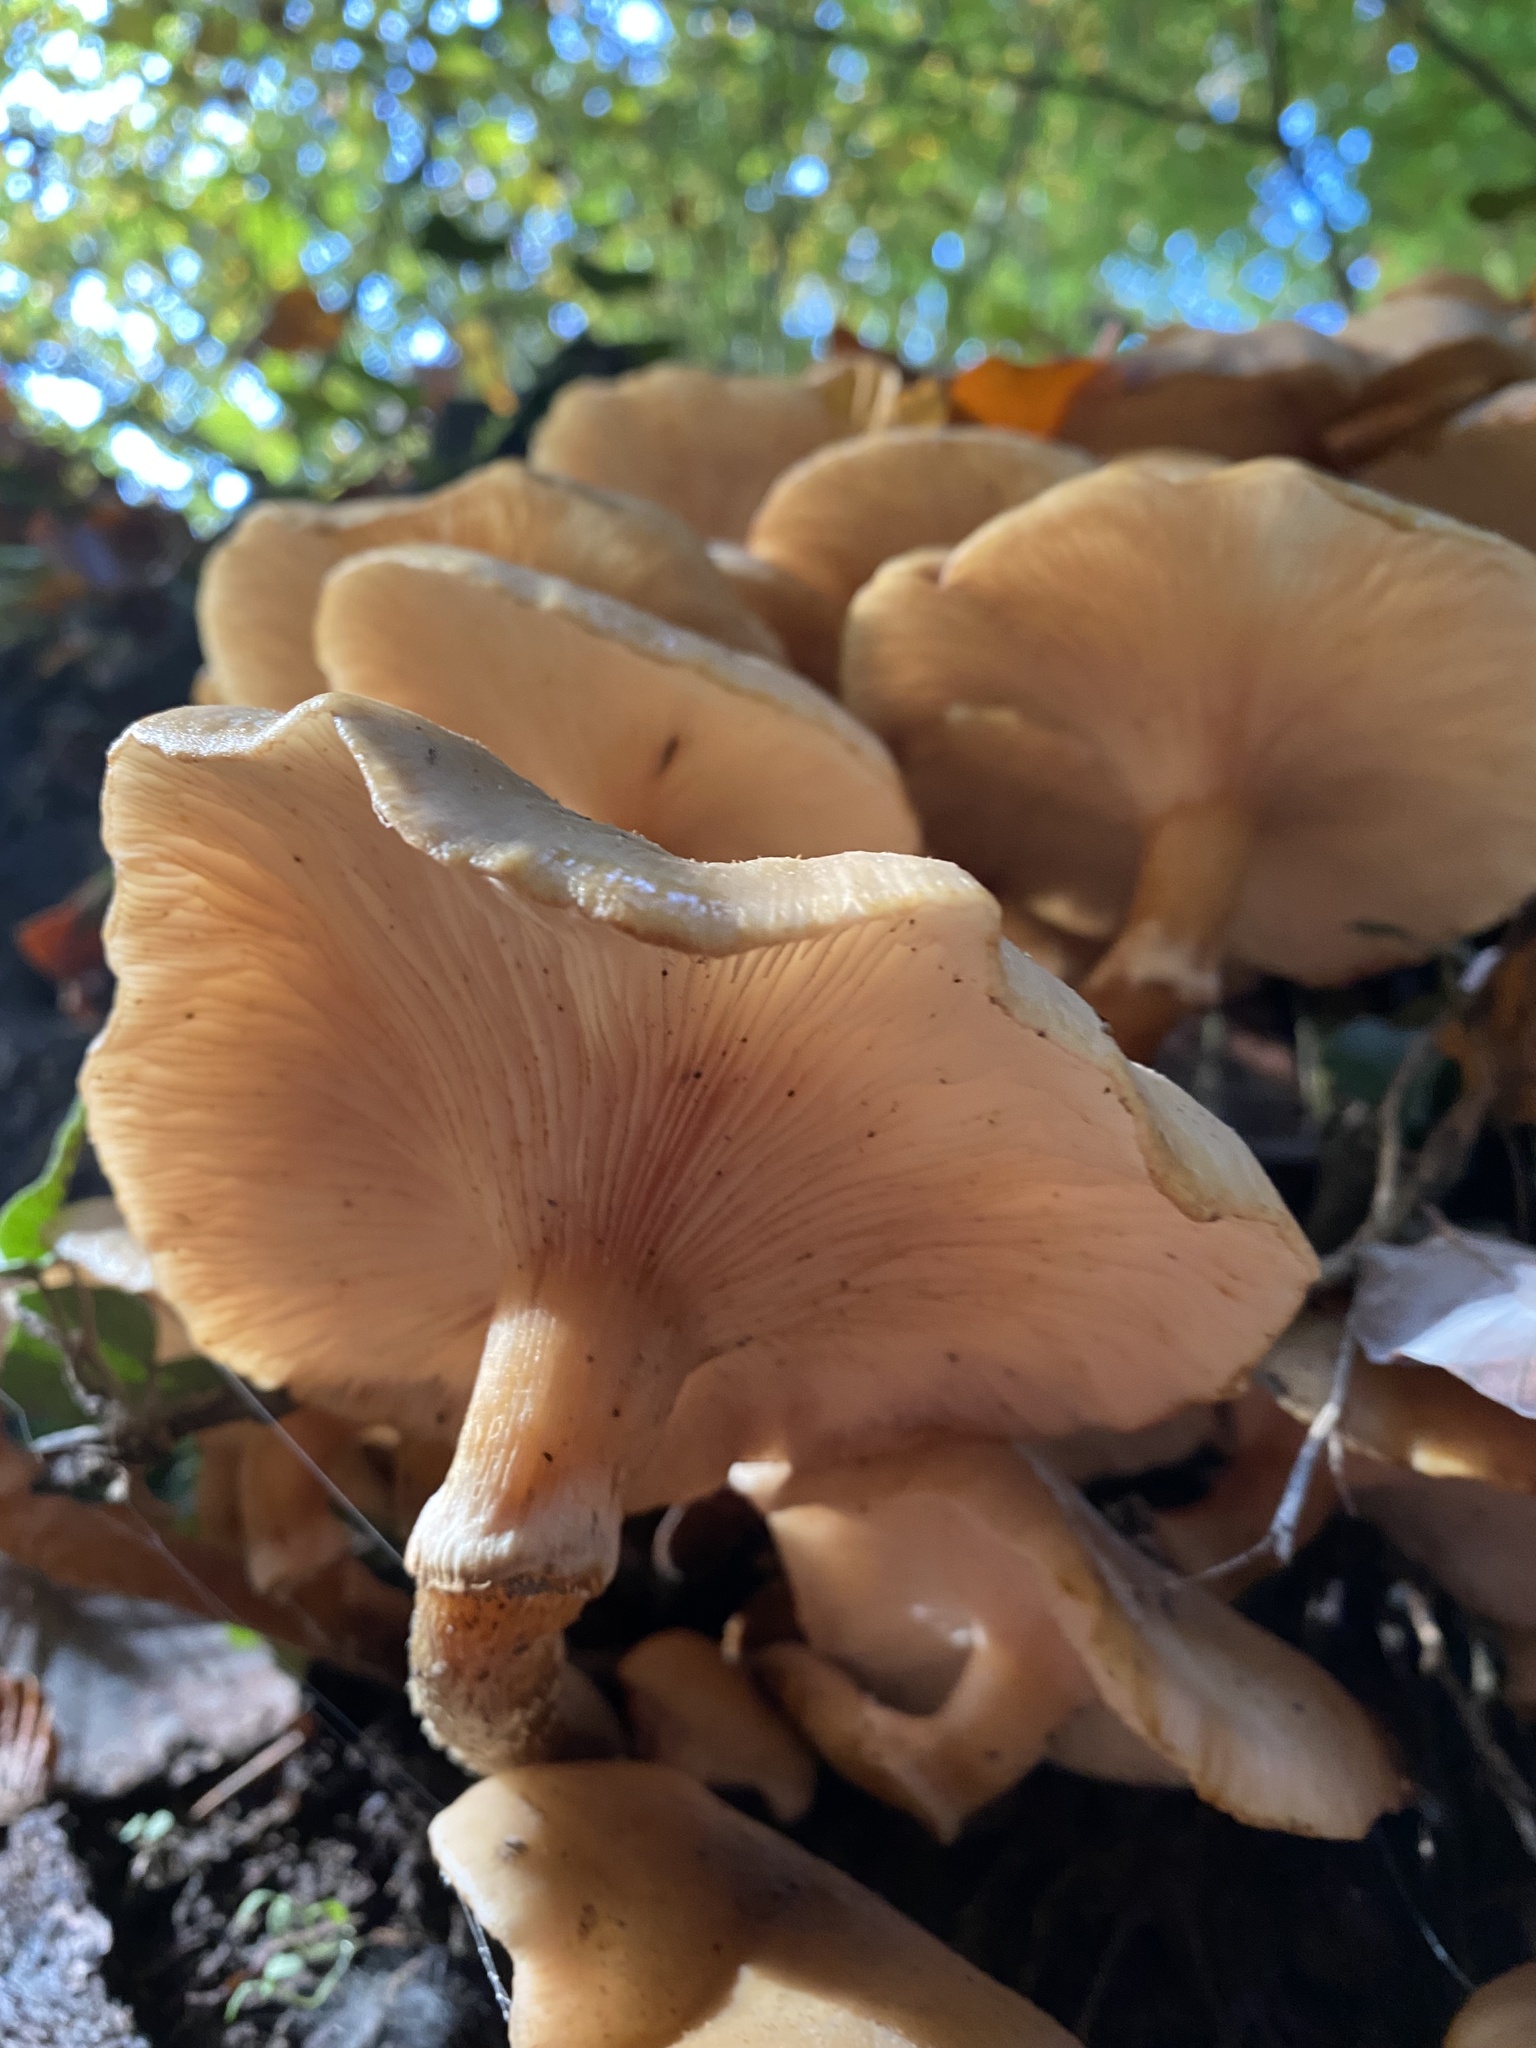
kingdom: Fungi
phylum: Basidiomycota
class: Agaricomycetes
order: Agaricales
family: Physalacriaceae
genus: Armillaria
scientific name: Armillaria mellea
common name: Honey fungus
